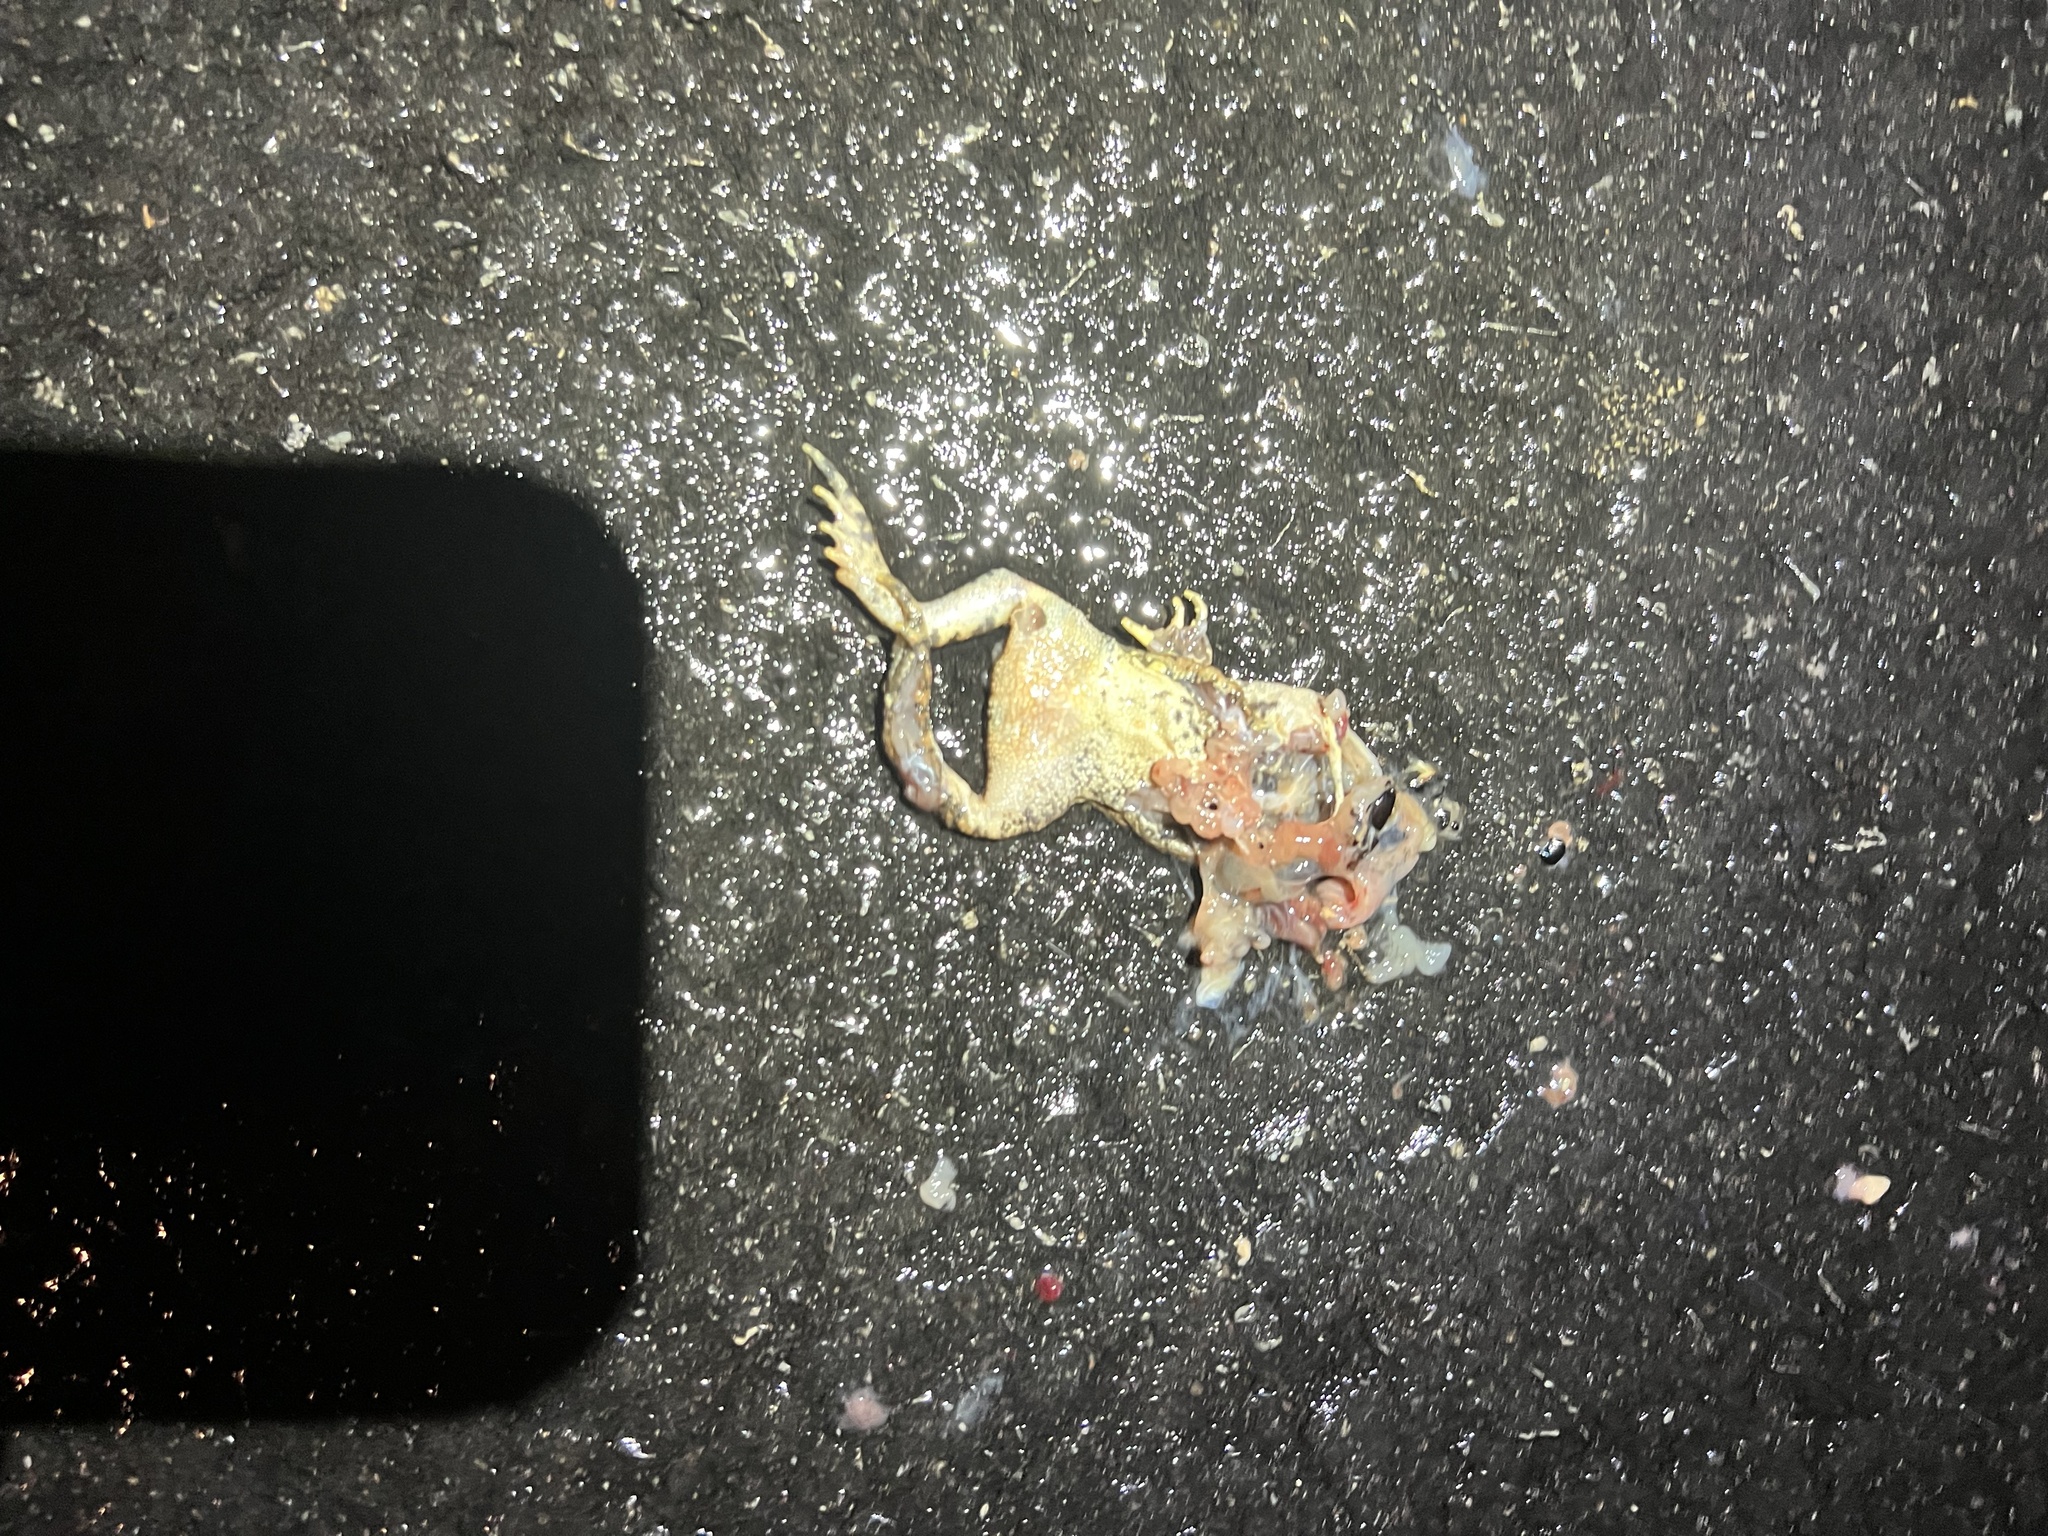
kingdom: Animalia
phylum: Chordata
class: Amphibia
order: Anura
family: Bufonidae
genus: Anaxyrus
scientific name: Anaxyrus americanus
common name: American toad
